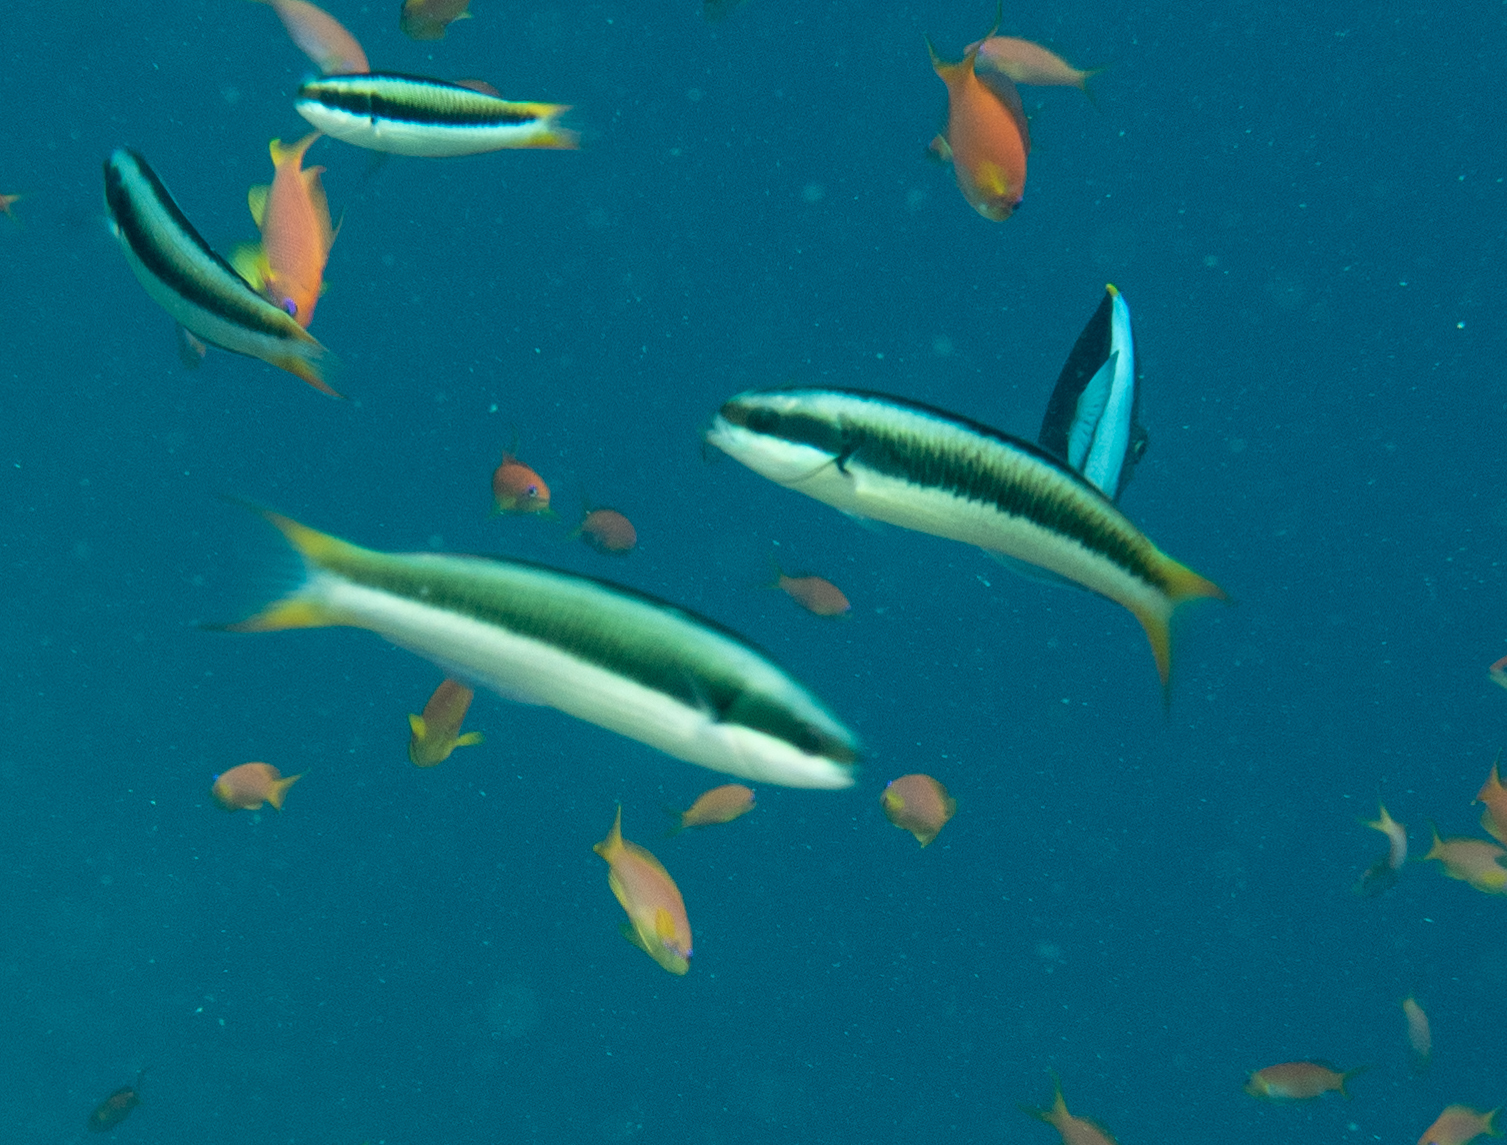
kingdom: Animalia
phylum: Chordata
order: Perciformes
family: Labridae
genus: Thalassoma
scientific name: Thalassoma amblycephalum
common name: Bluehead wrasse
